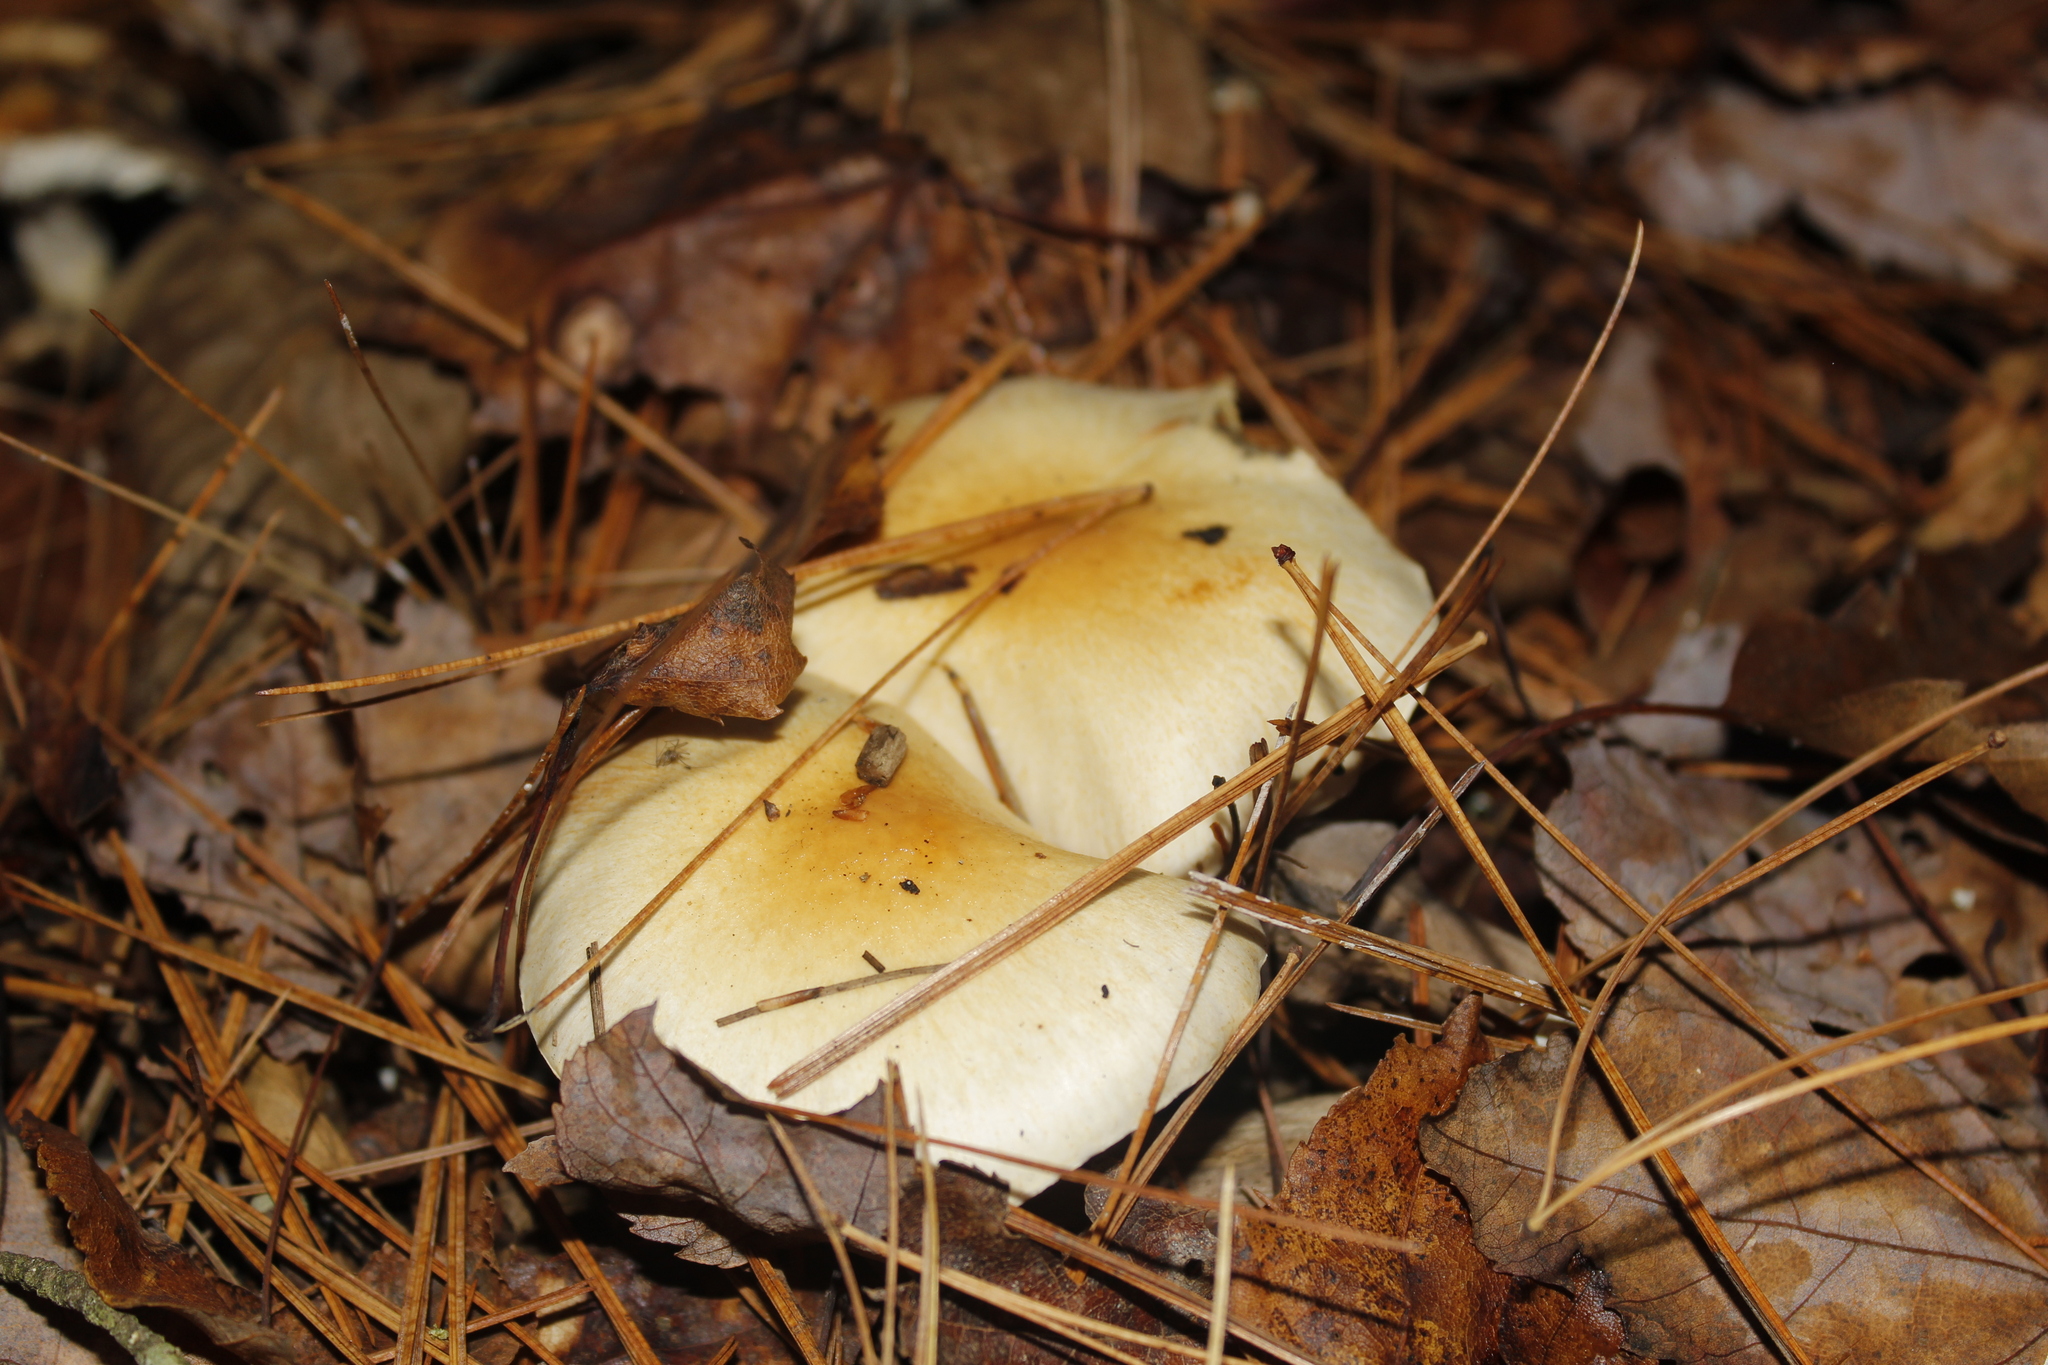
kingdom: Fungi
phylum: Basidiomycota
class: Agaricomycetes
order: Agaricales
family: Hygrophoraceae
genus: Hygrophorus
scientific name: Hygrophorus ligatus
